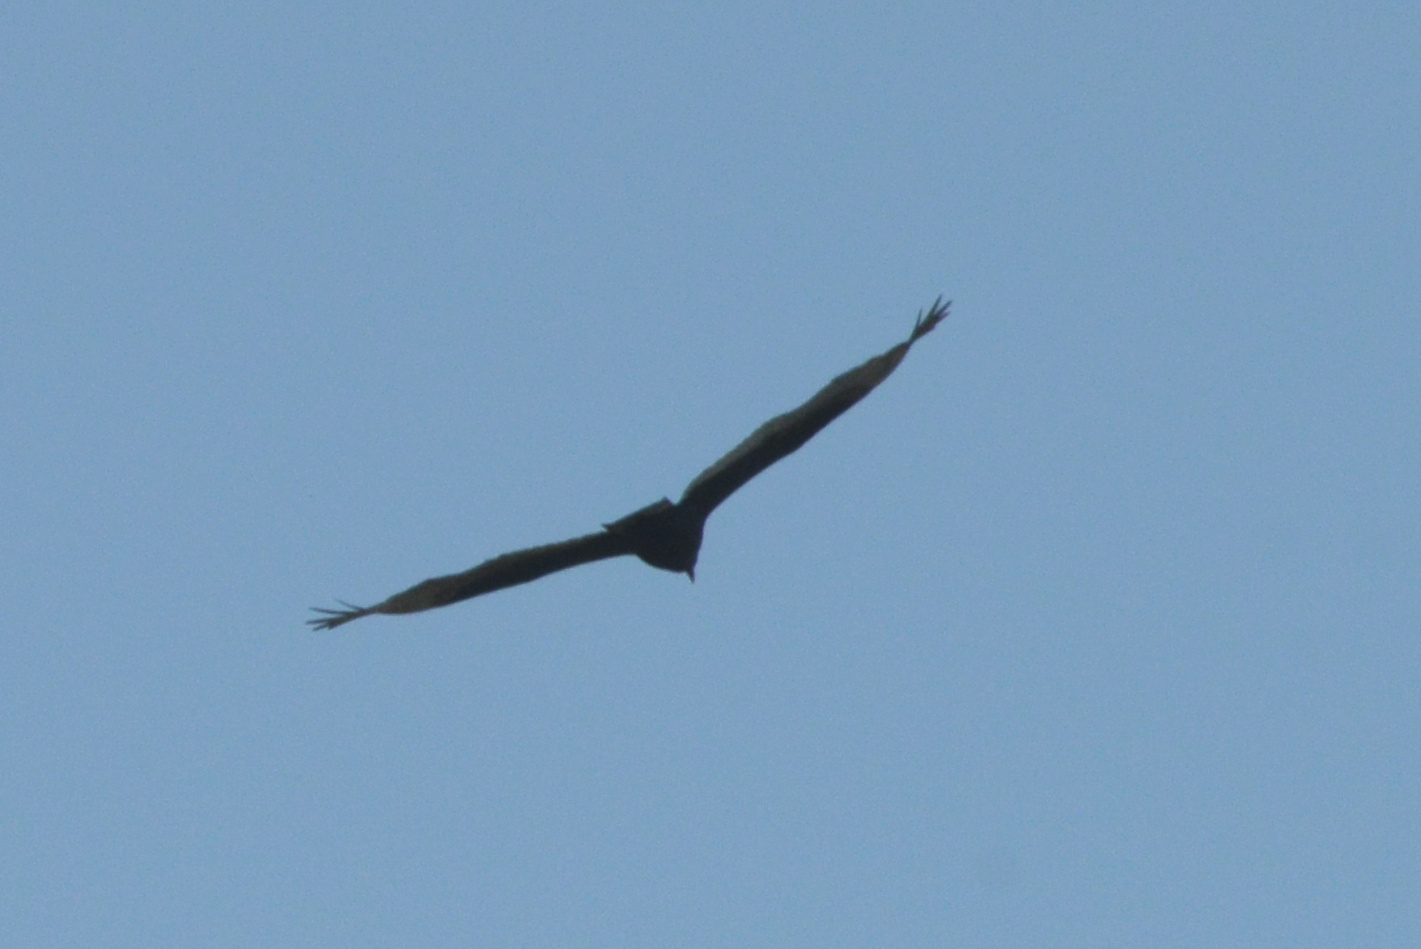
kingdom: Animalia
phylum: Chordata
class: Aves
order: Accipitriformes
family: Cathartidae
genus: Cathartes
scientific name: Cathartes aura
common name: Turkey vulture
